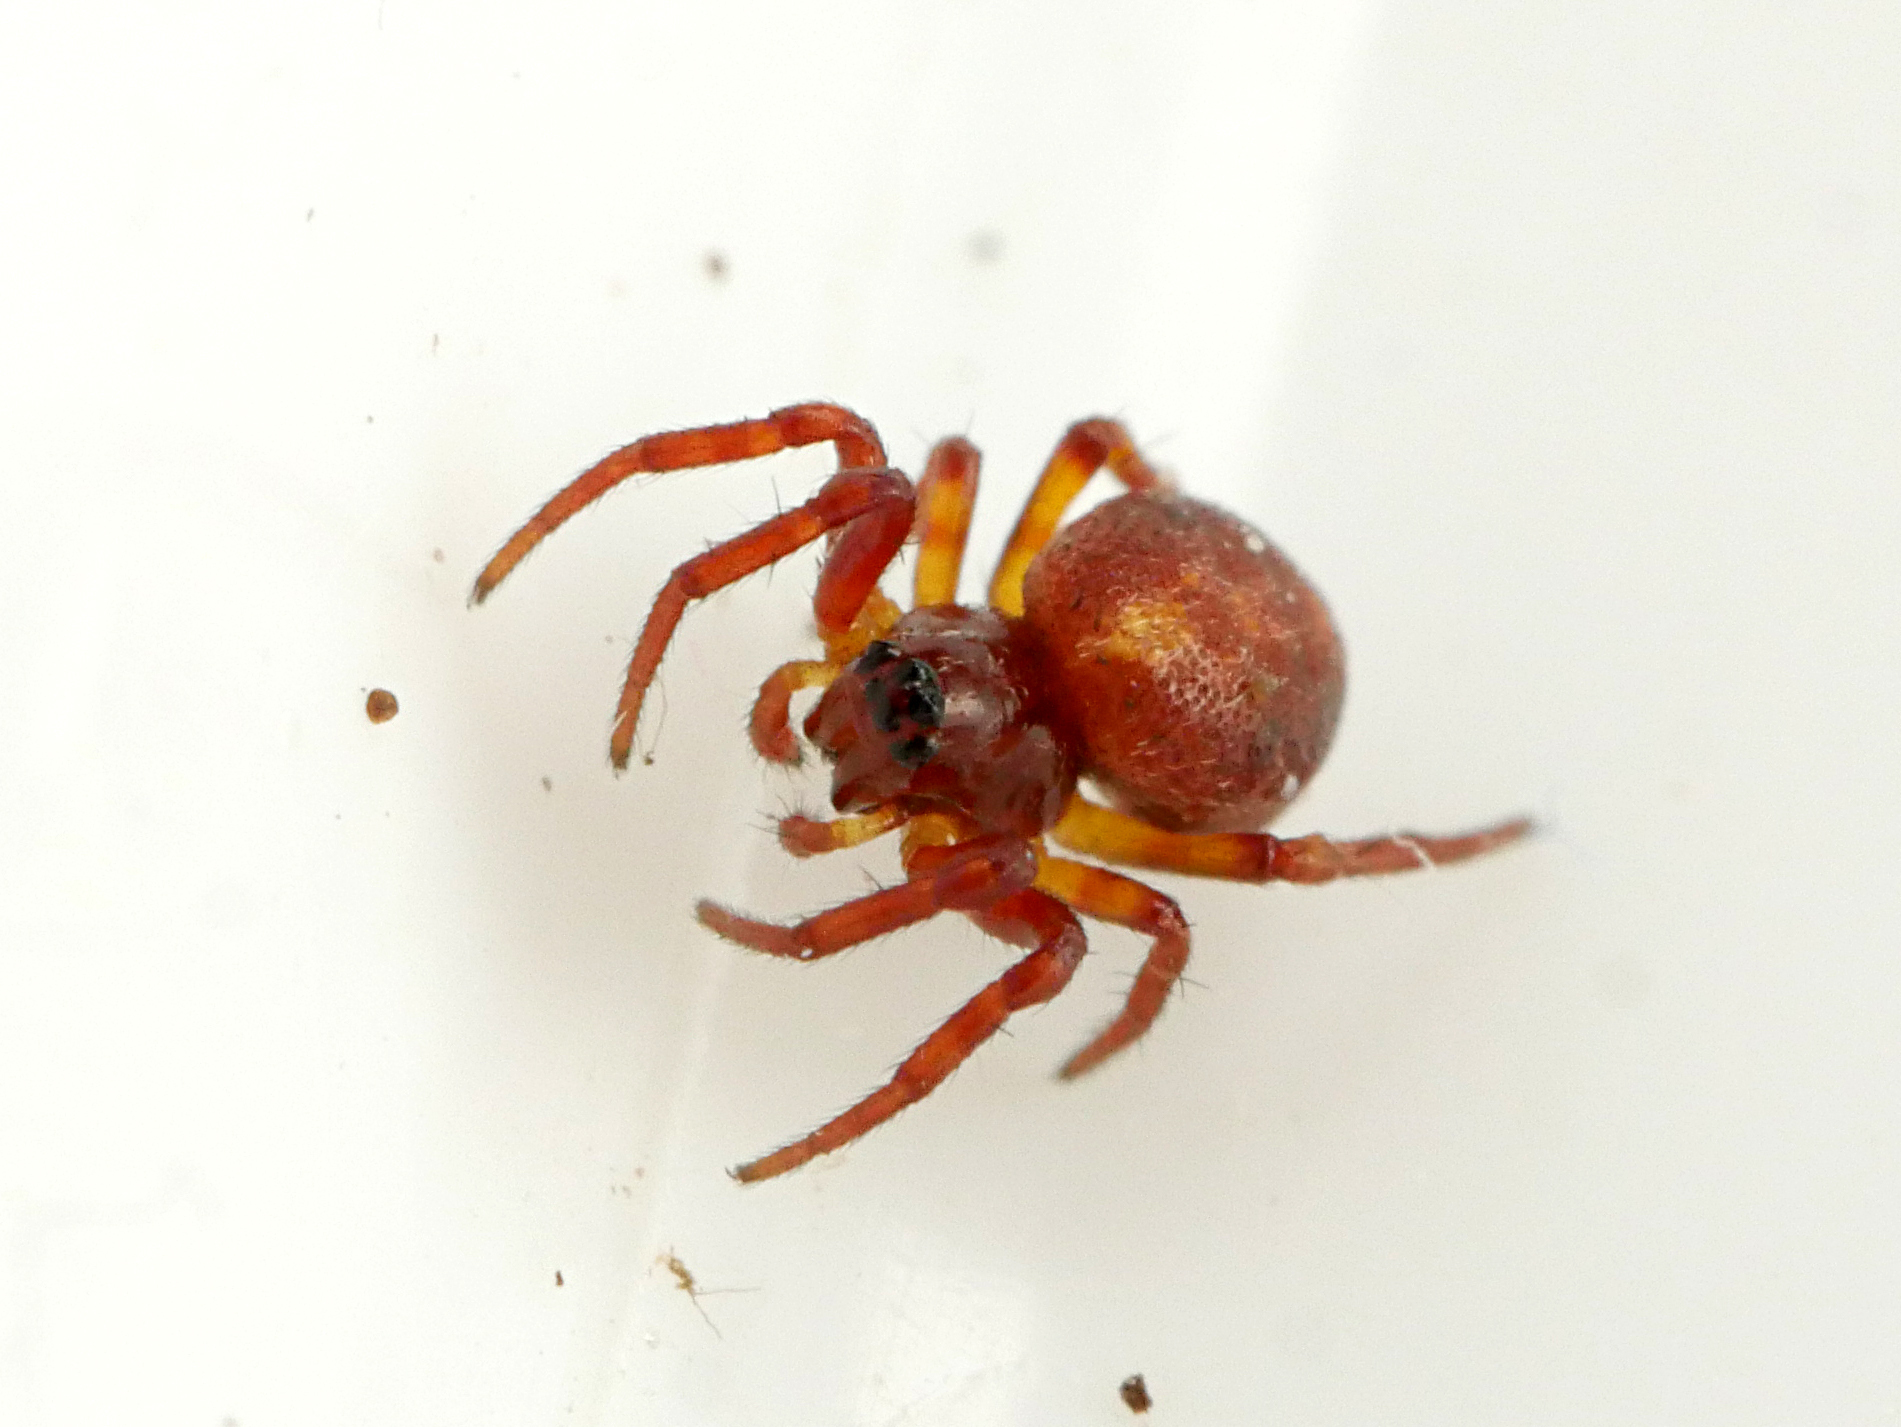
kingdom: Animalia
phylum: Arthropoda
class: Arachnida
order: Araneae
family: Araneidae
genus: Cercidia
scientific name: Cercidia prominens
